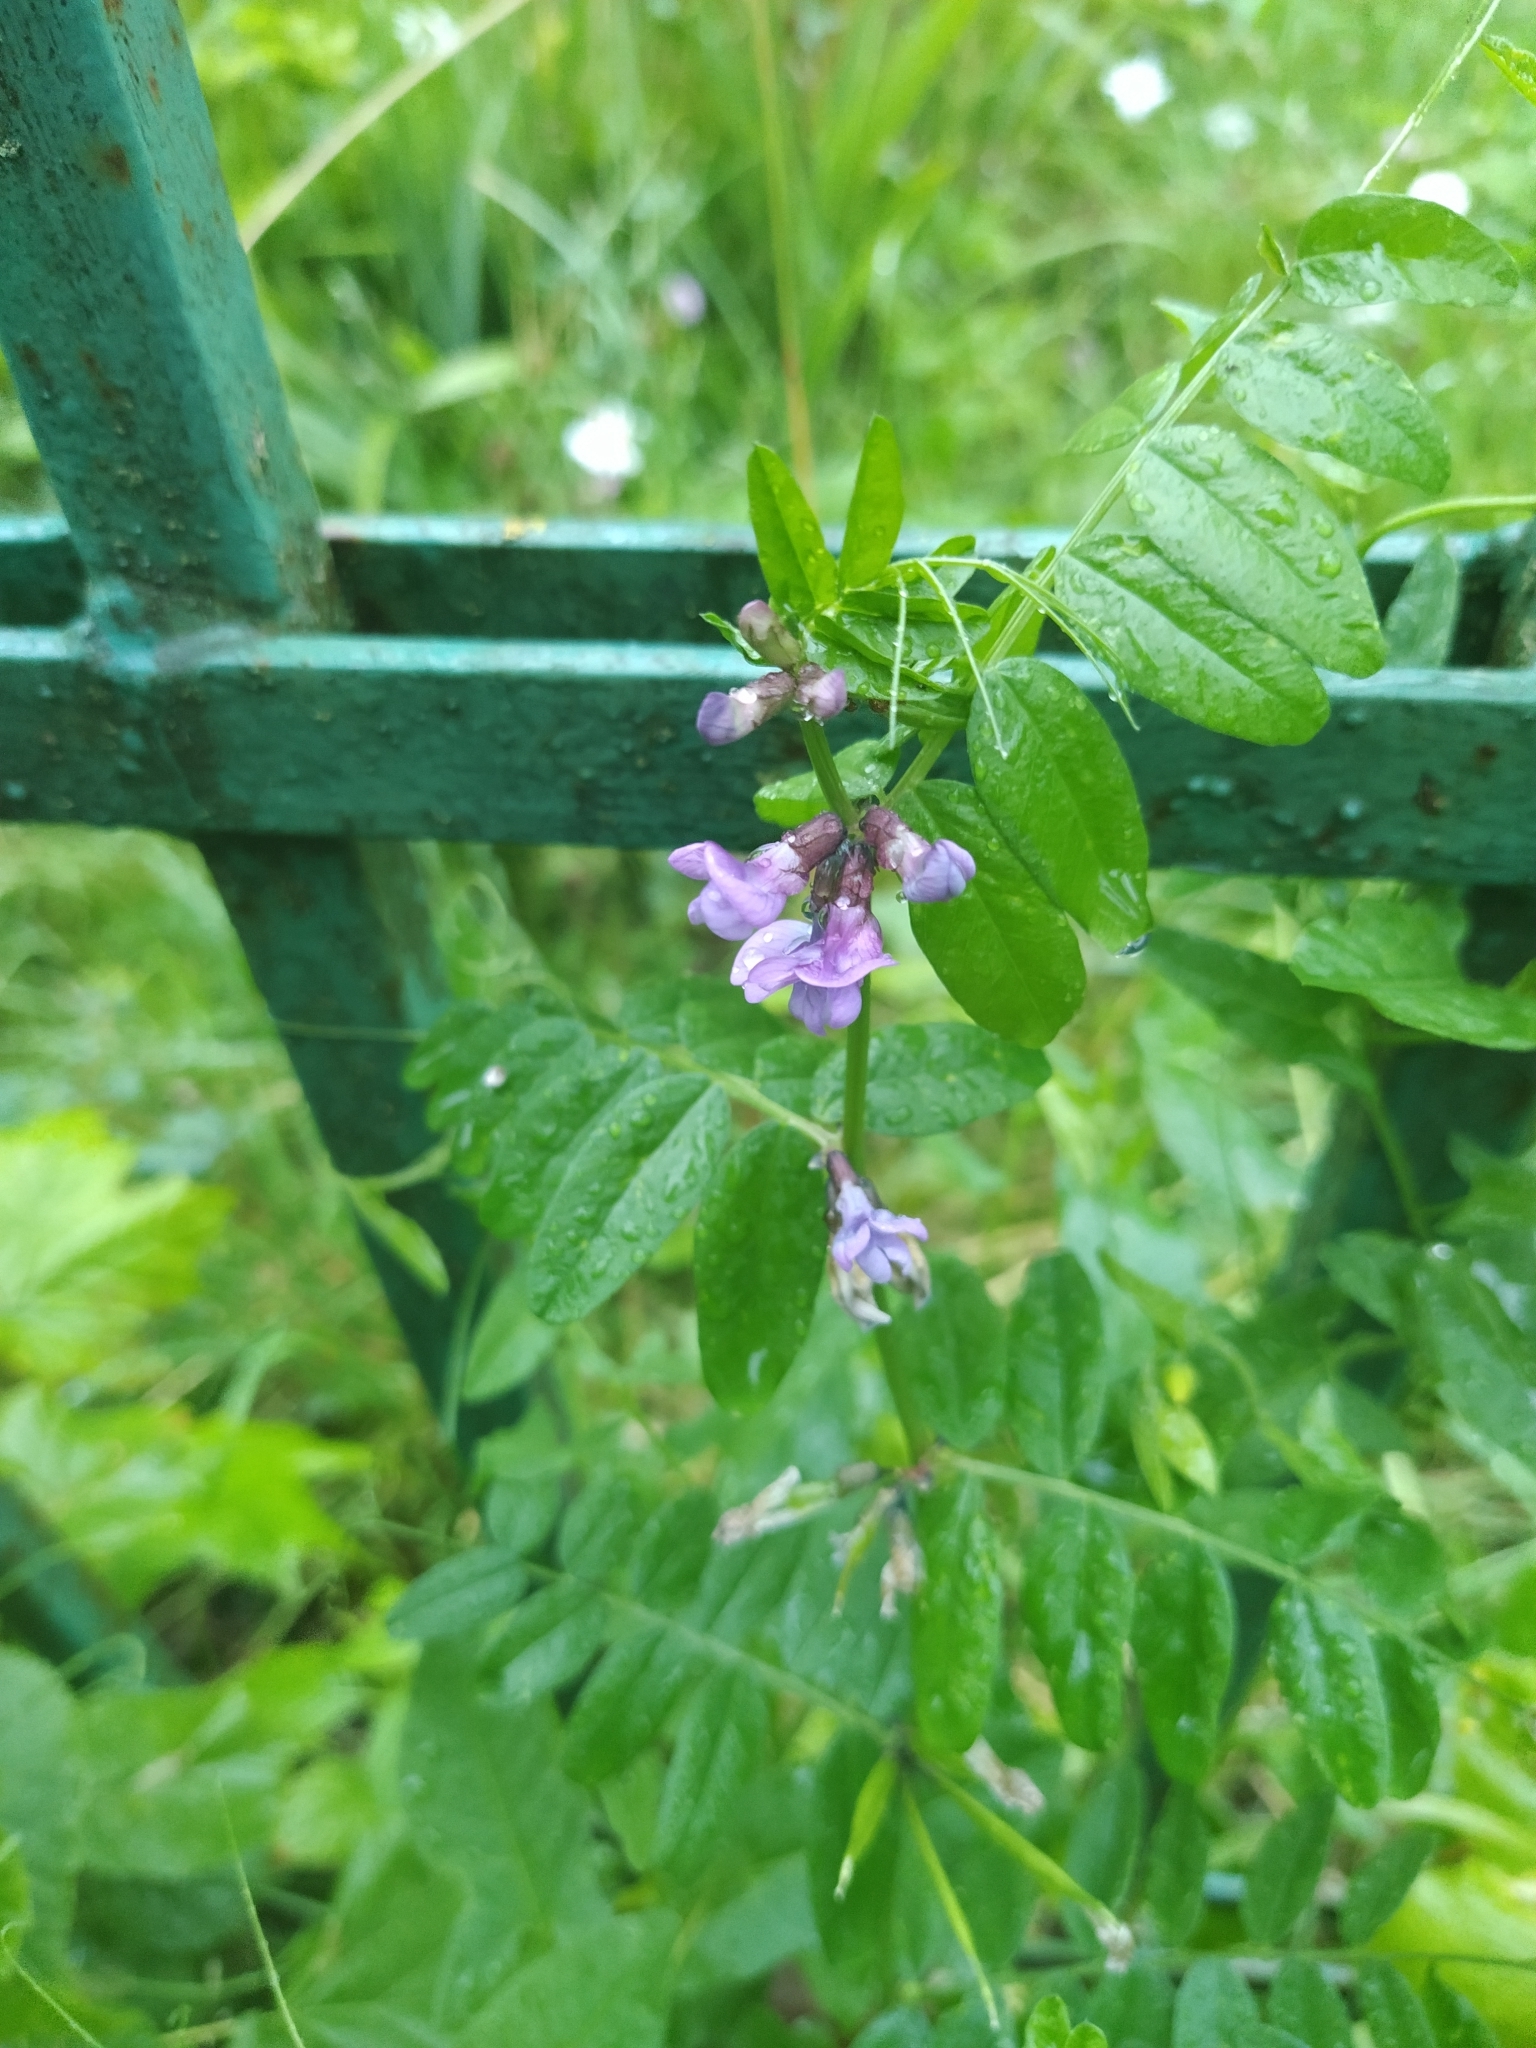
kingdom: Plantae
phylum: Tracheophyta
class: Magnoliopsida
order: Fabales
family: Fabaceae
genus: Vicia
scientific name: Vicia sepium
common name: Bush vetch
